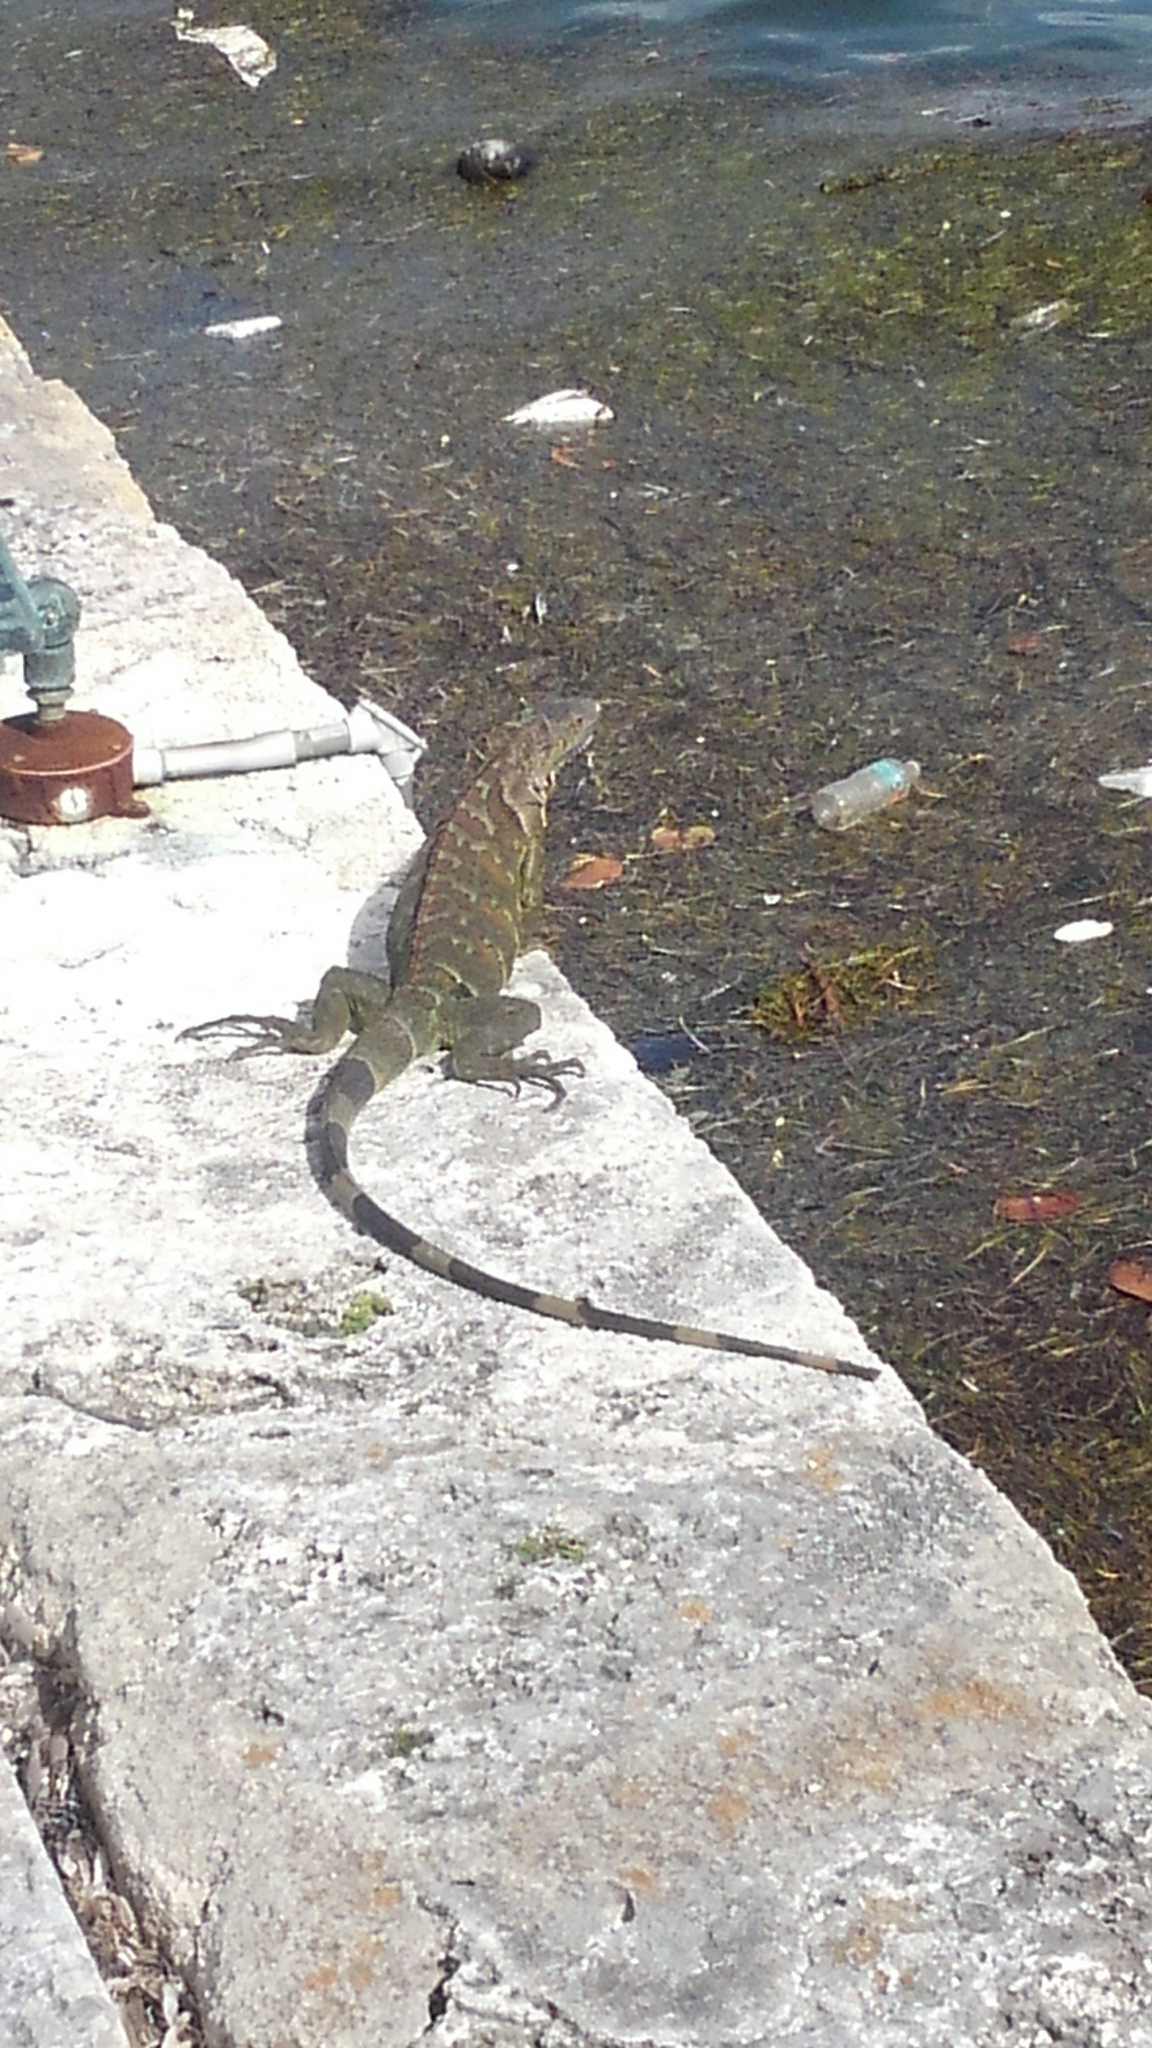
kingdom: Animalia
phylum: Chordata
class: Squamata
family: Iguanidae
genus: Iguana
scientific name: Iguana iguana
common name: Green iguana
